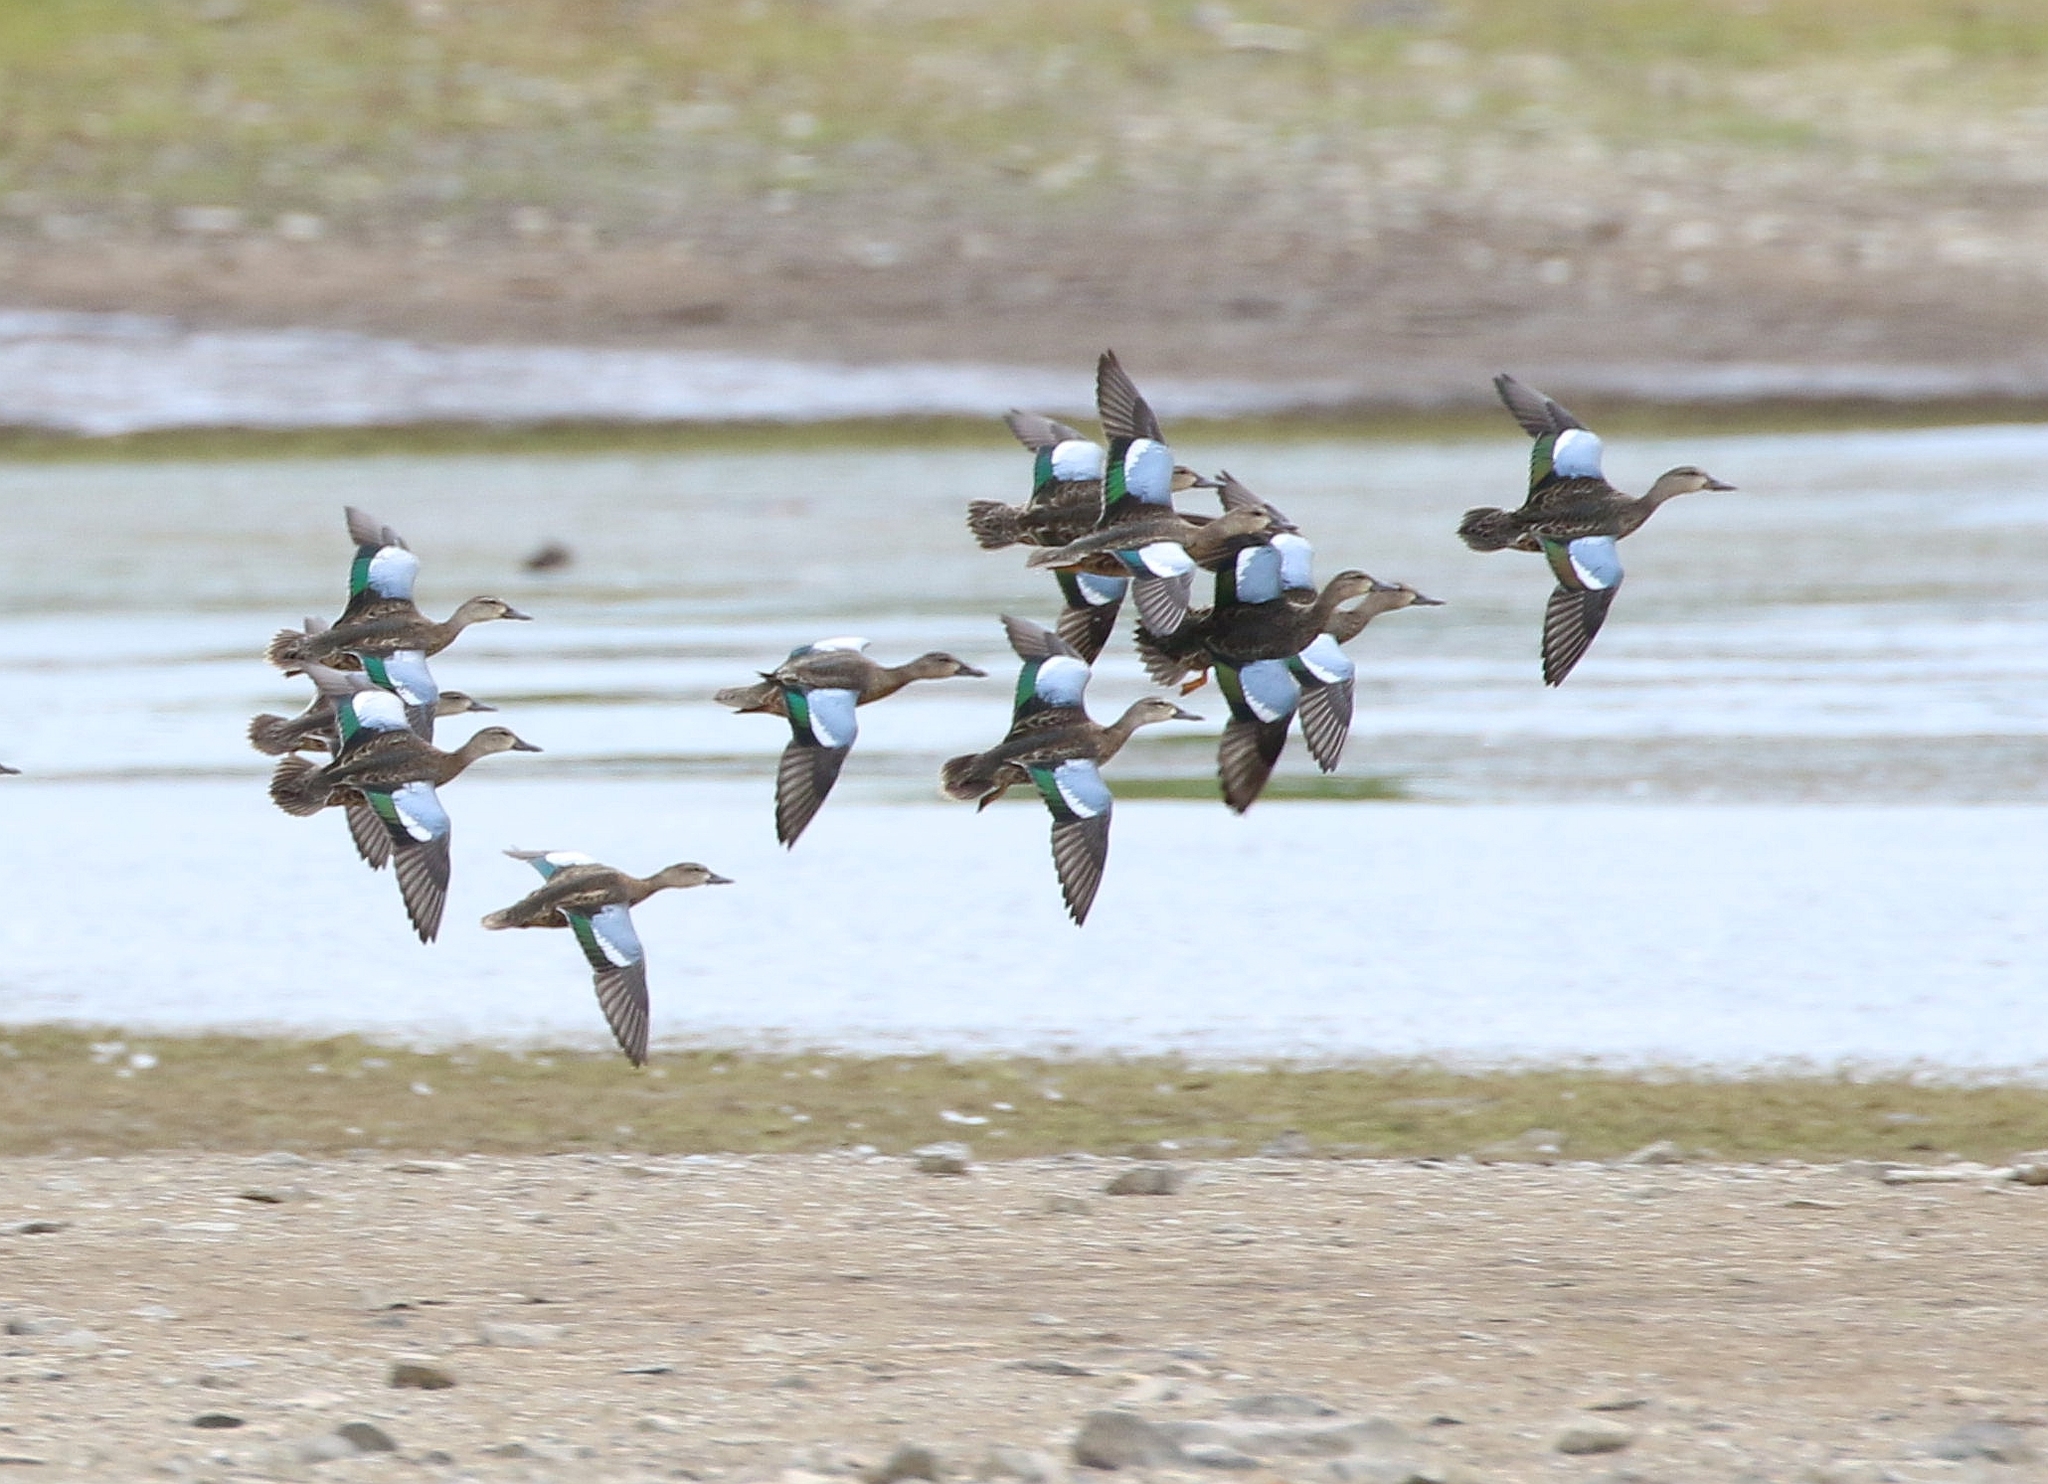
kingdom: Animalia
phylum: Chordata
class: Aves
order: Anseriformes
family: Anatidae
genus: Spatula
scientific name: Spatula discors
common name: Blue-winged teal
